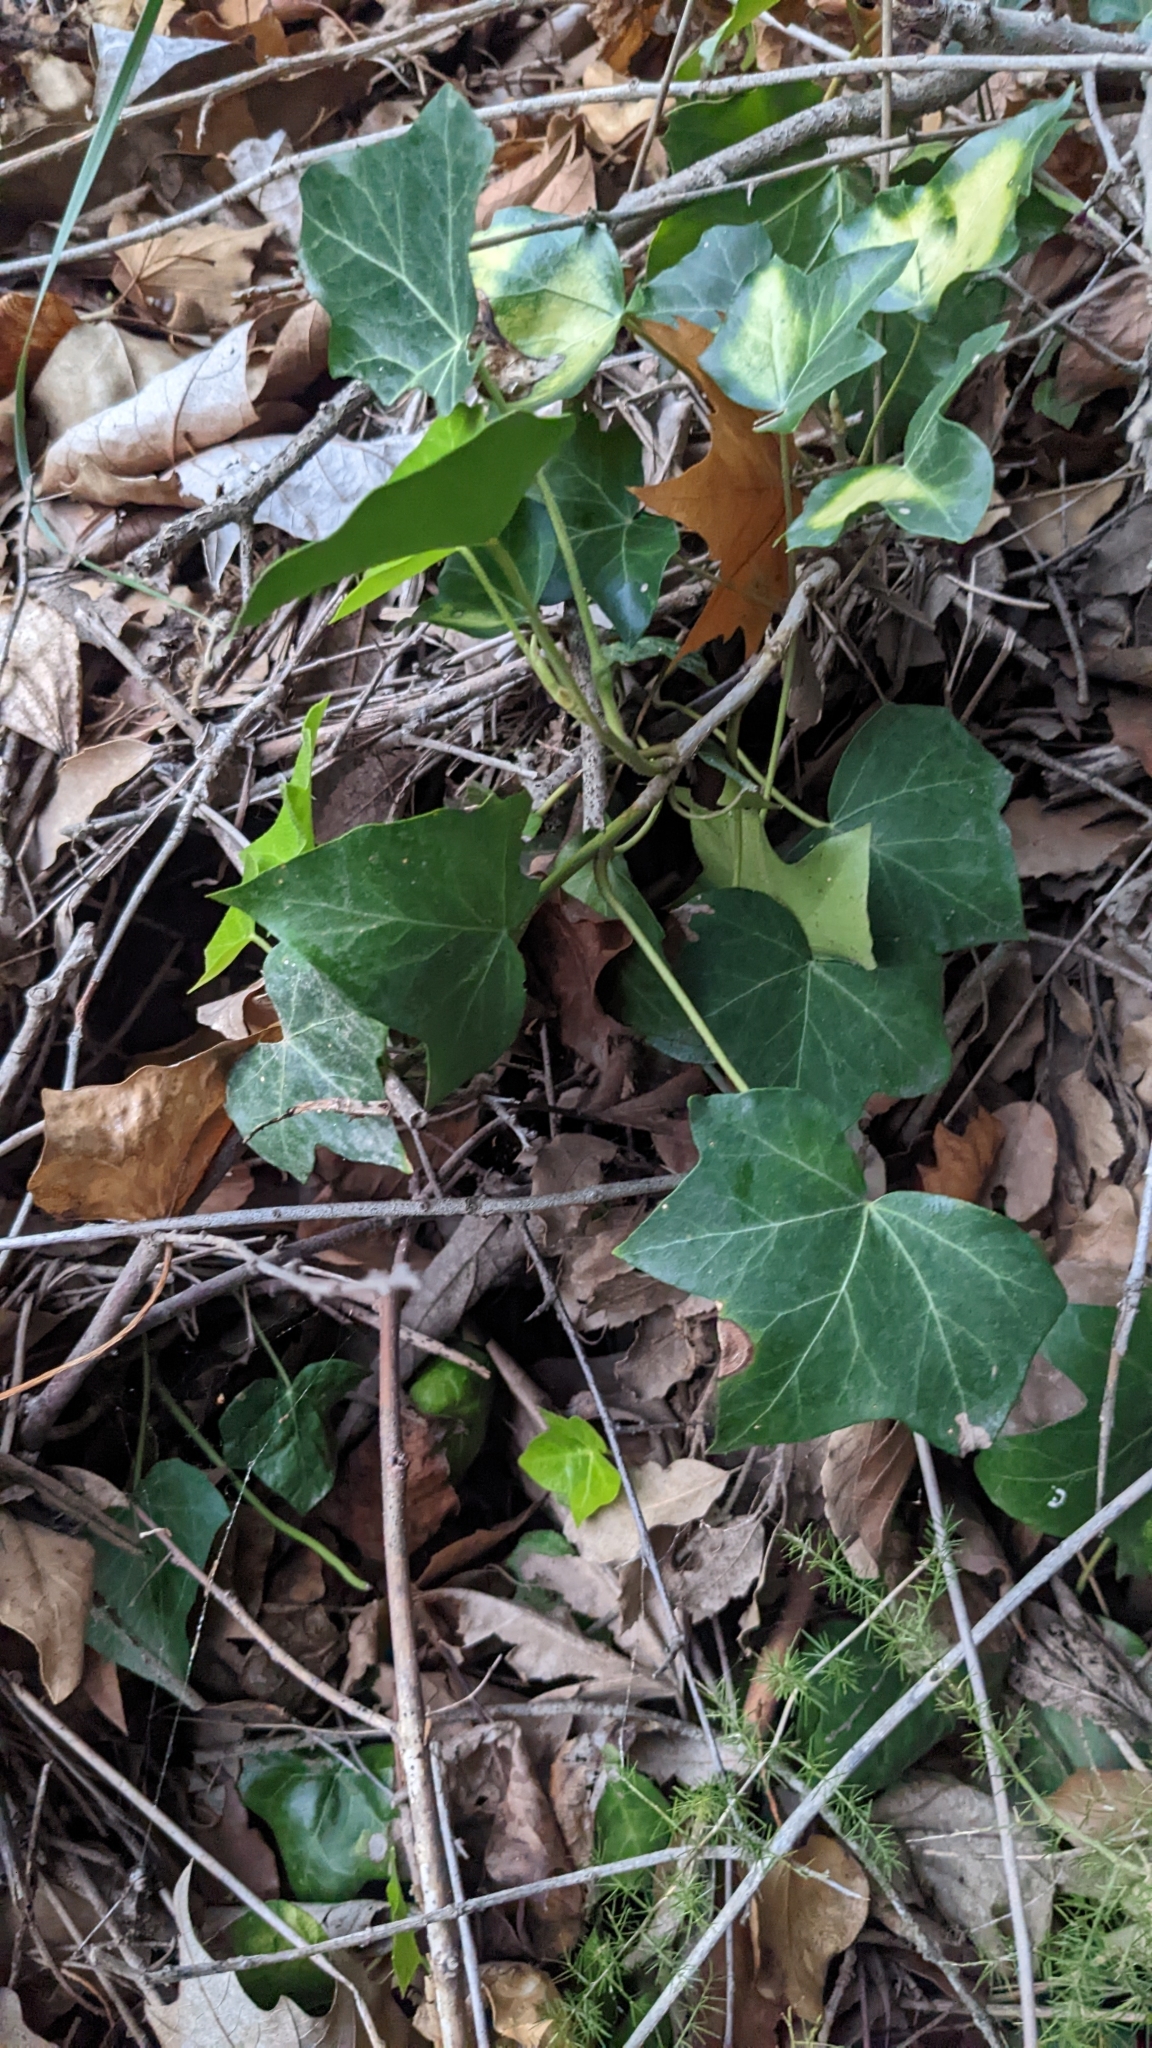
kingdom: Plantae
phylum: Tracheophyta
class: Magnoliopsida
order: Apiales
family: Araliaceae
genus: Hedera
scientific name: Hedera helix
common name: Ivy
